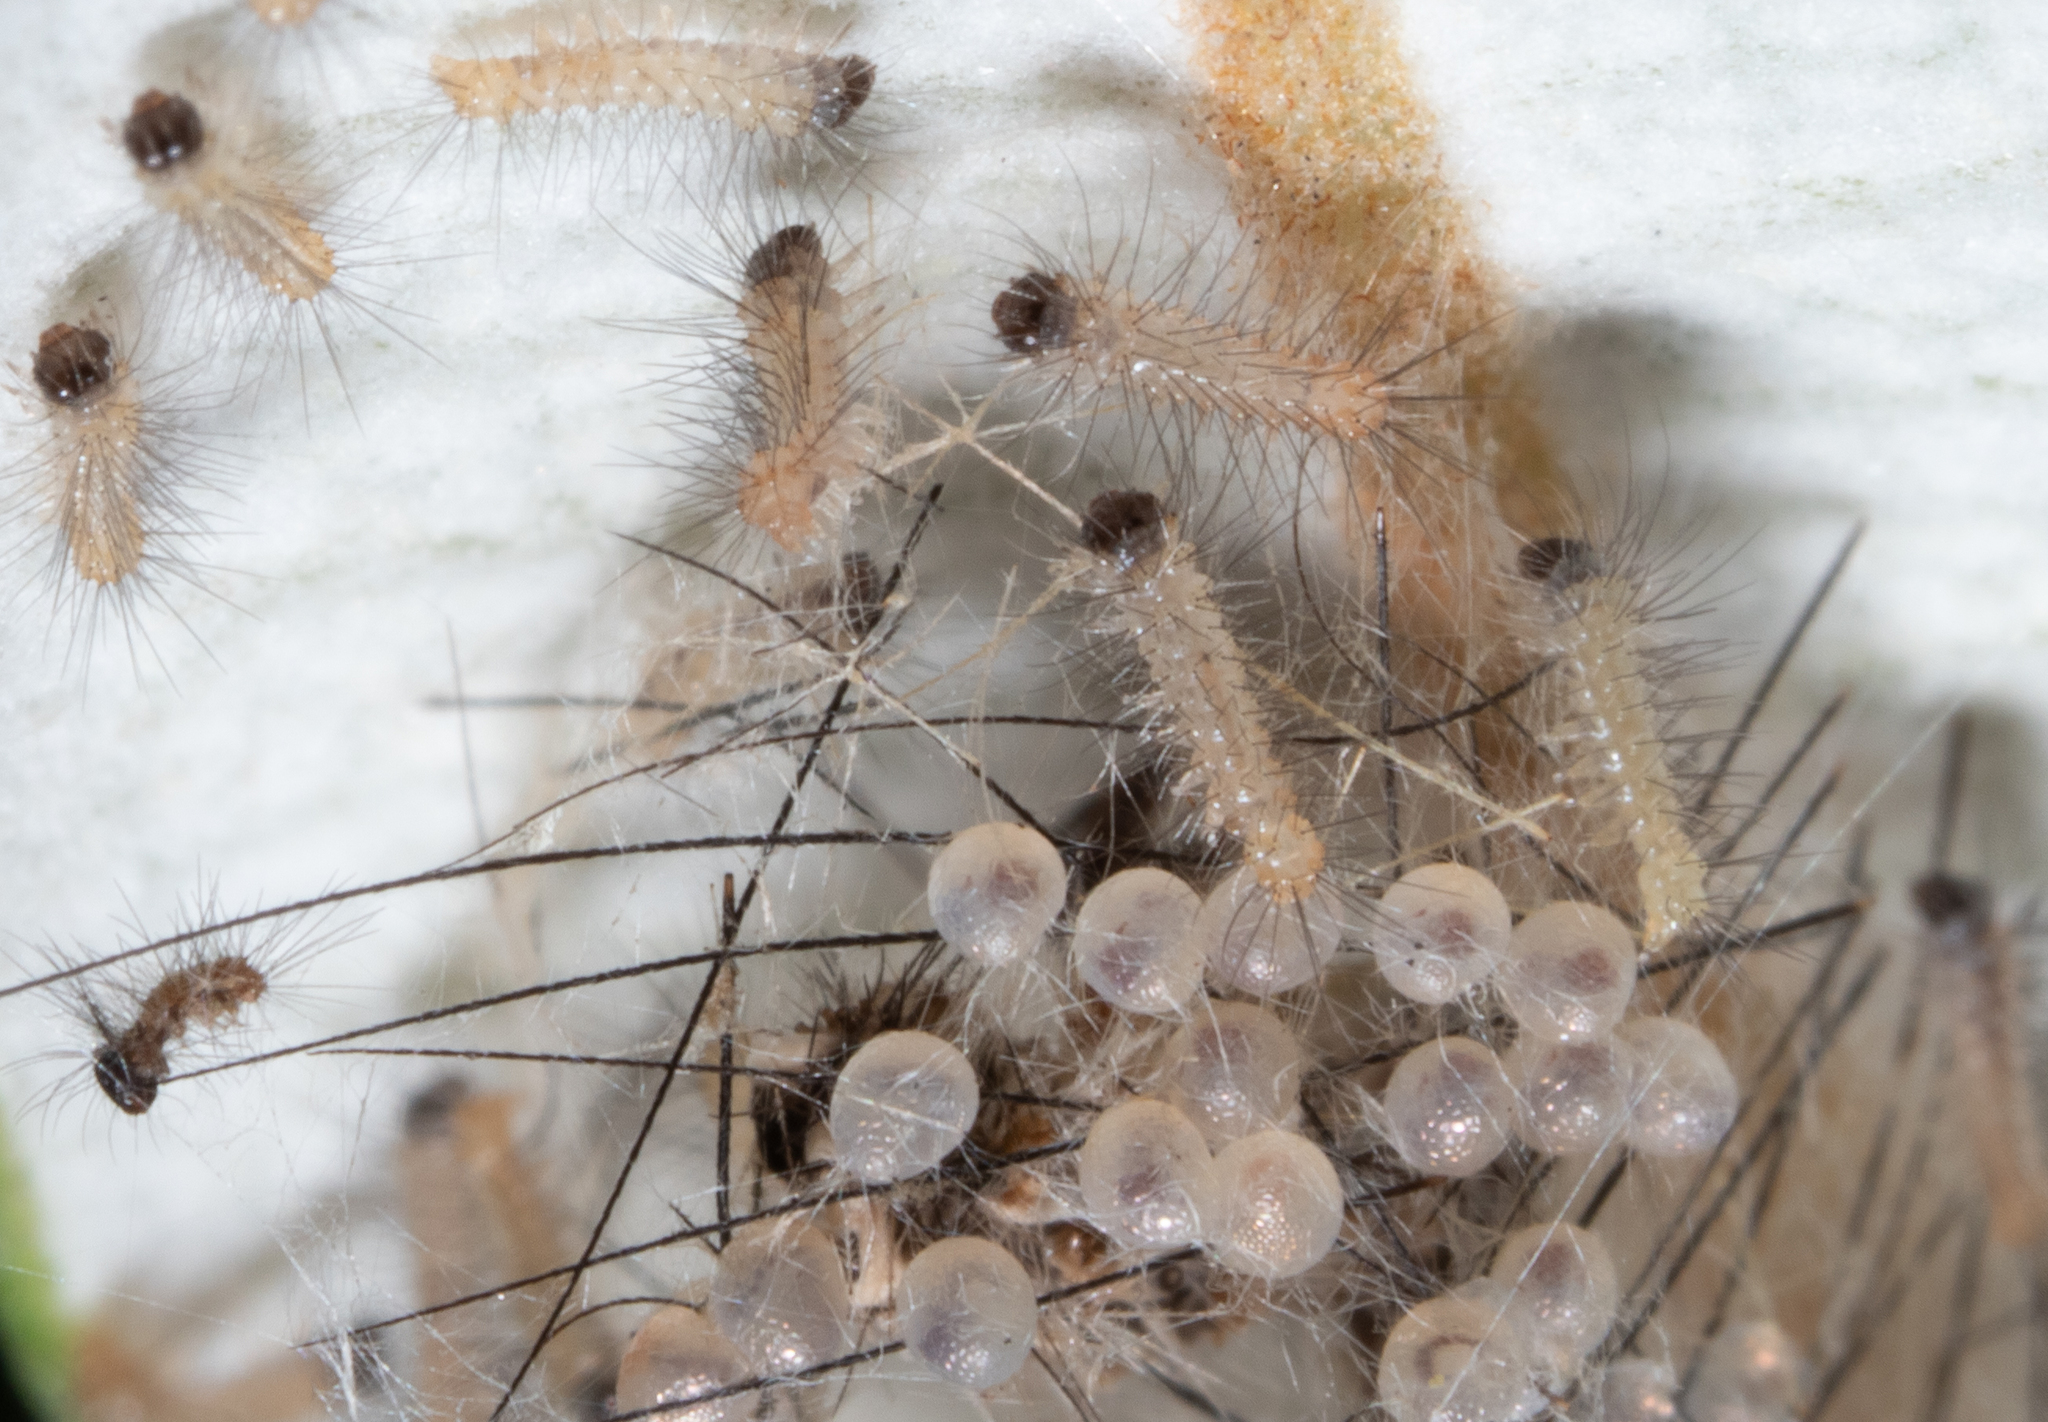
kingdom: Animalia
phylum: Arthropoda
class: Insecta
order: Lepidoptera
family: Erebidae
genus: Anestia
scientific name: Anestia
